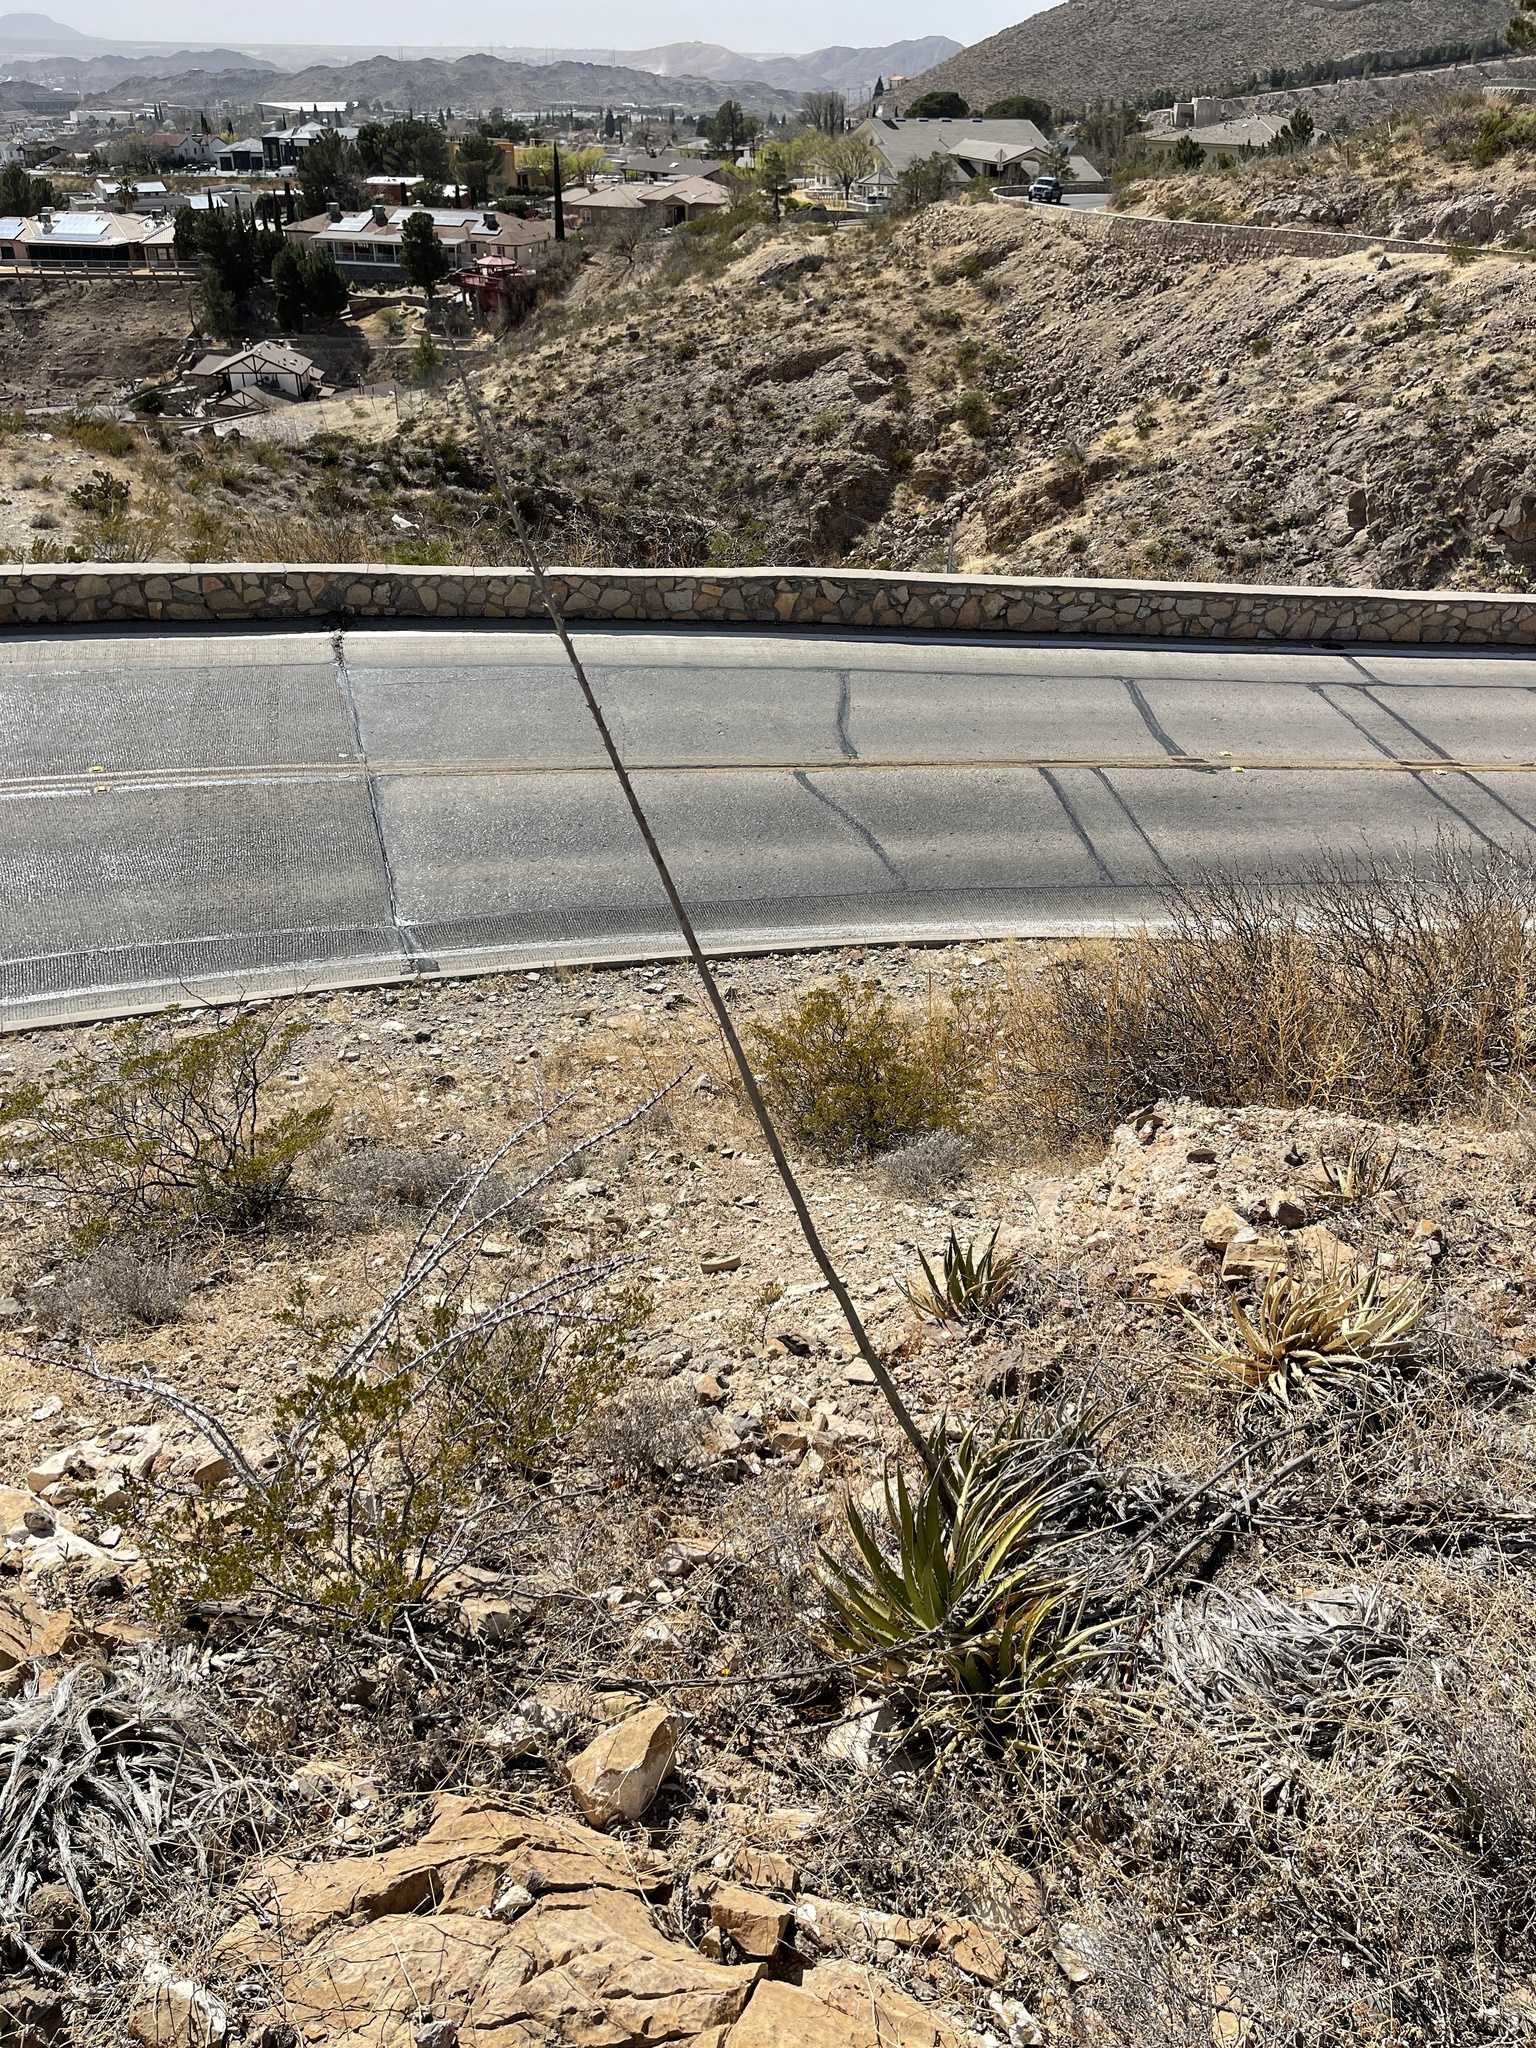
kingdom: Plantae
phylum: Tracheophyta
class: Liliopsida
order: Asparagales
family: Asparagaceae
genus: Agave
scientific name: Agave lechuguilla
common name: Lecheguilla agave
